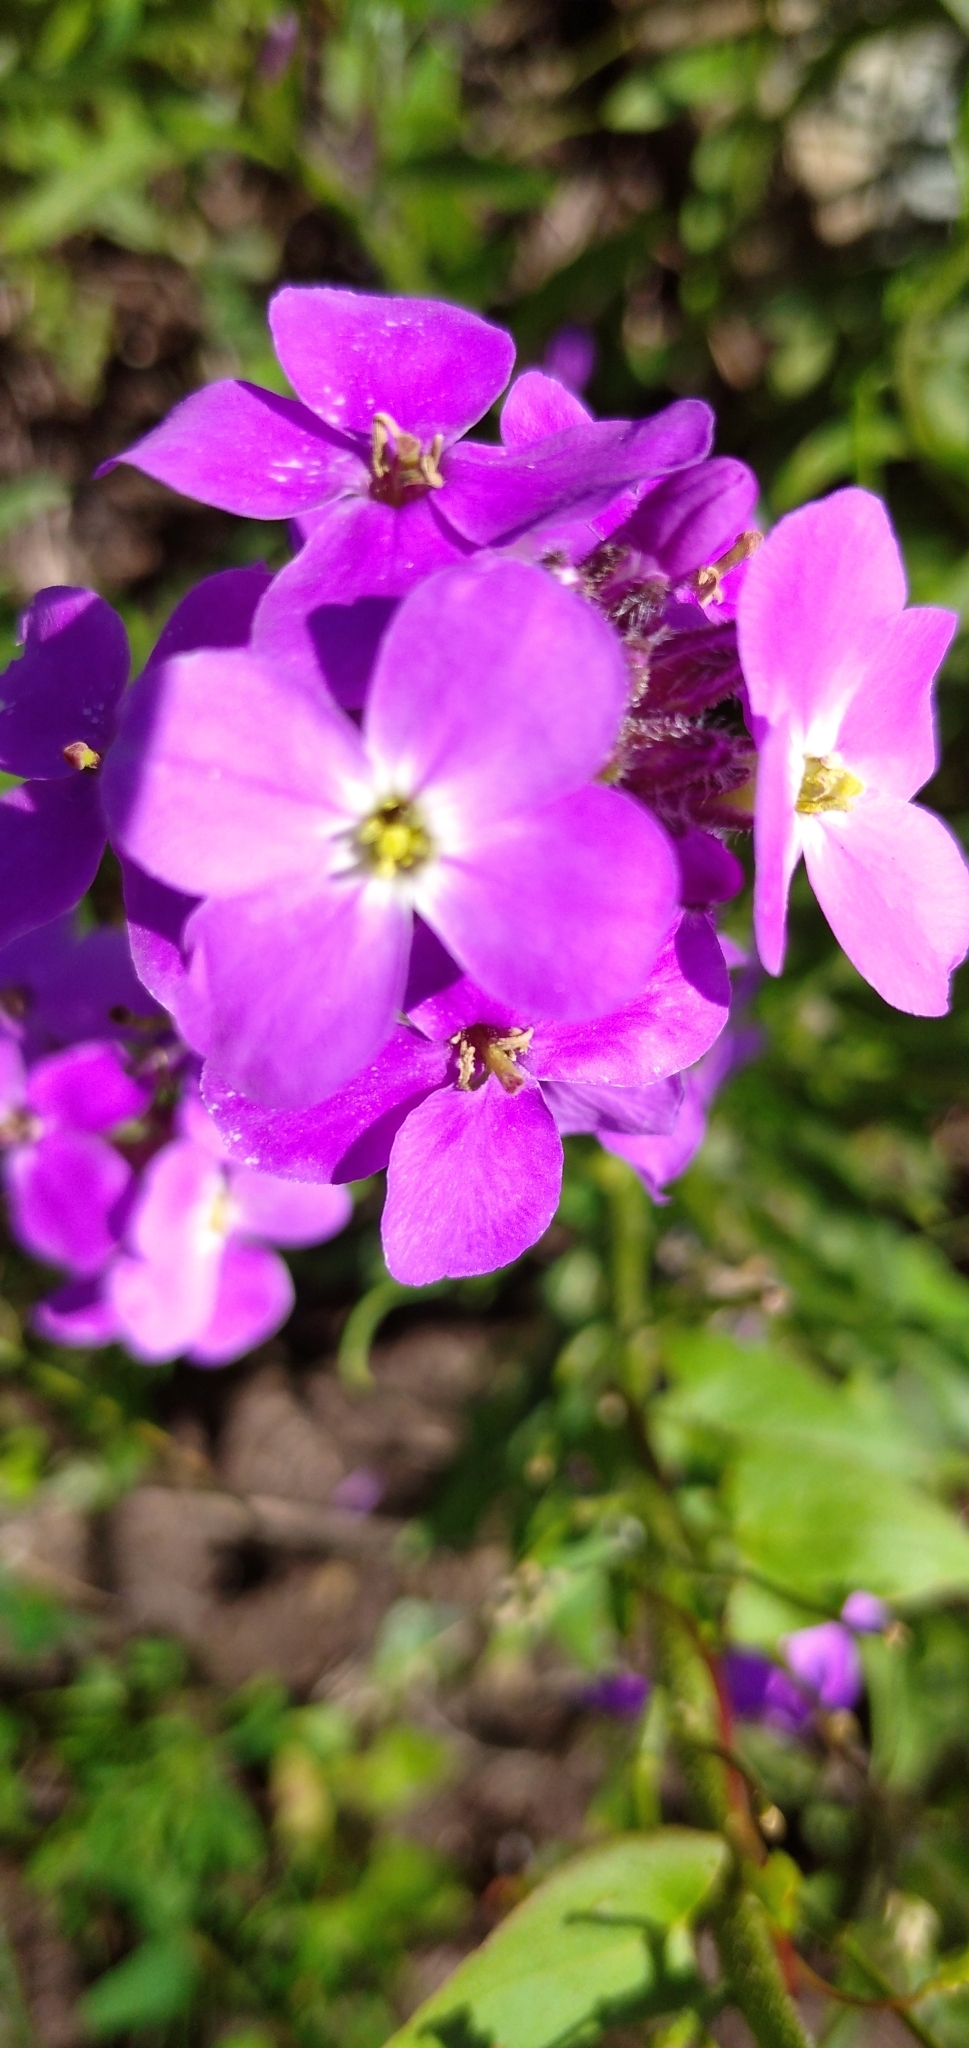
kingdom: Plantae
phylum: Tracheophyta
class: Magnoliopsida
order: Brassicales
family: Brassicaceae
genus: Clausia
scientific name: Clausia aprica
